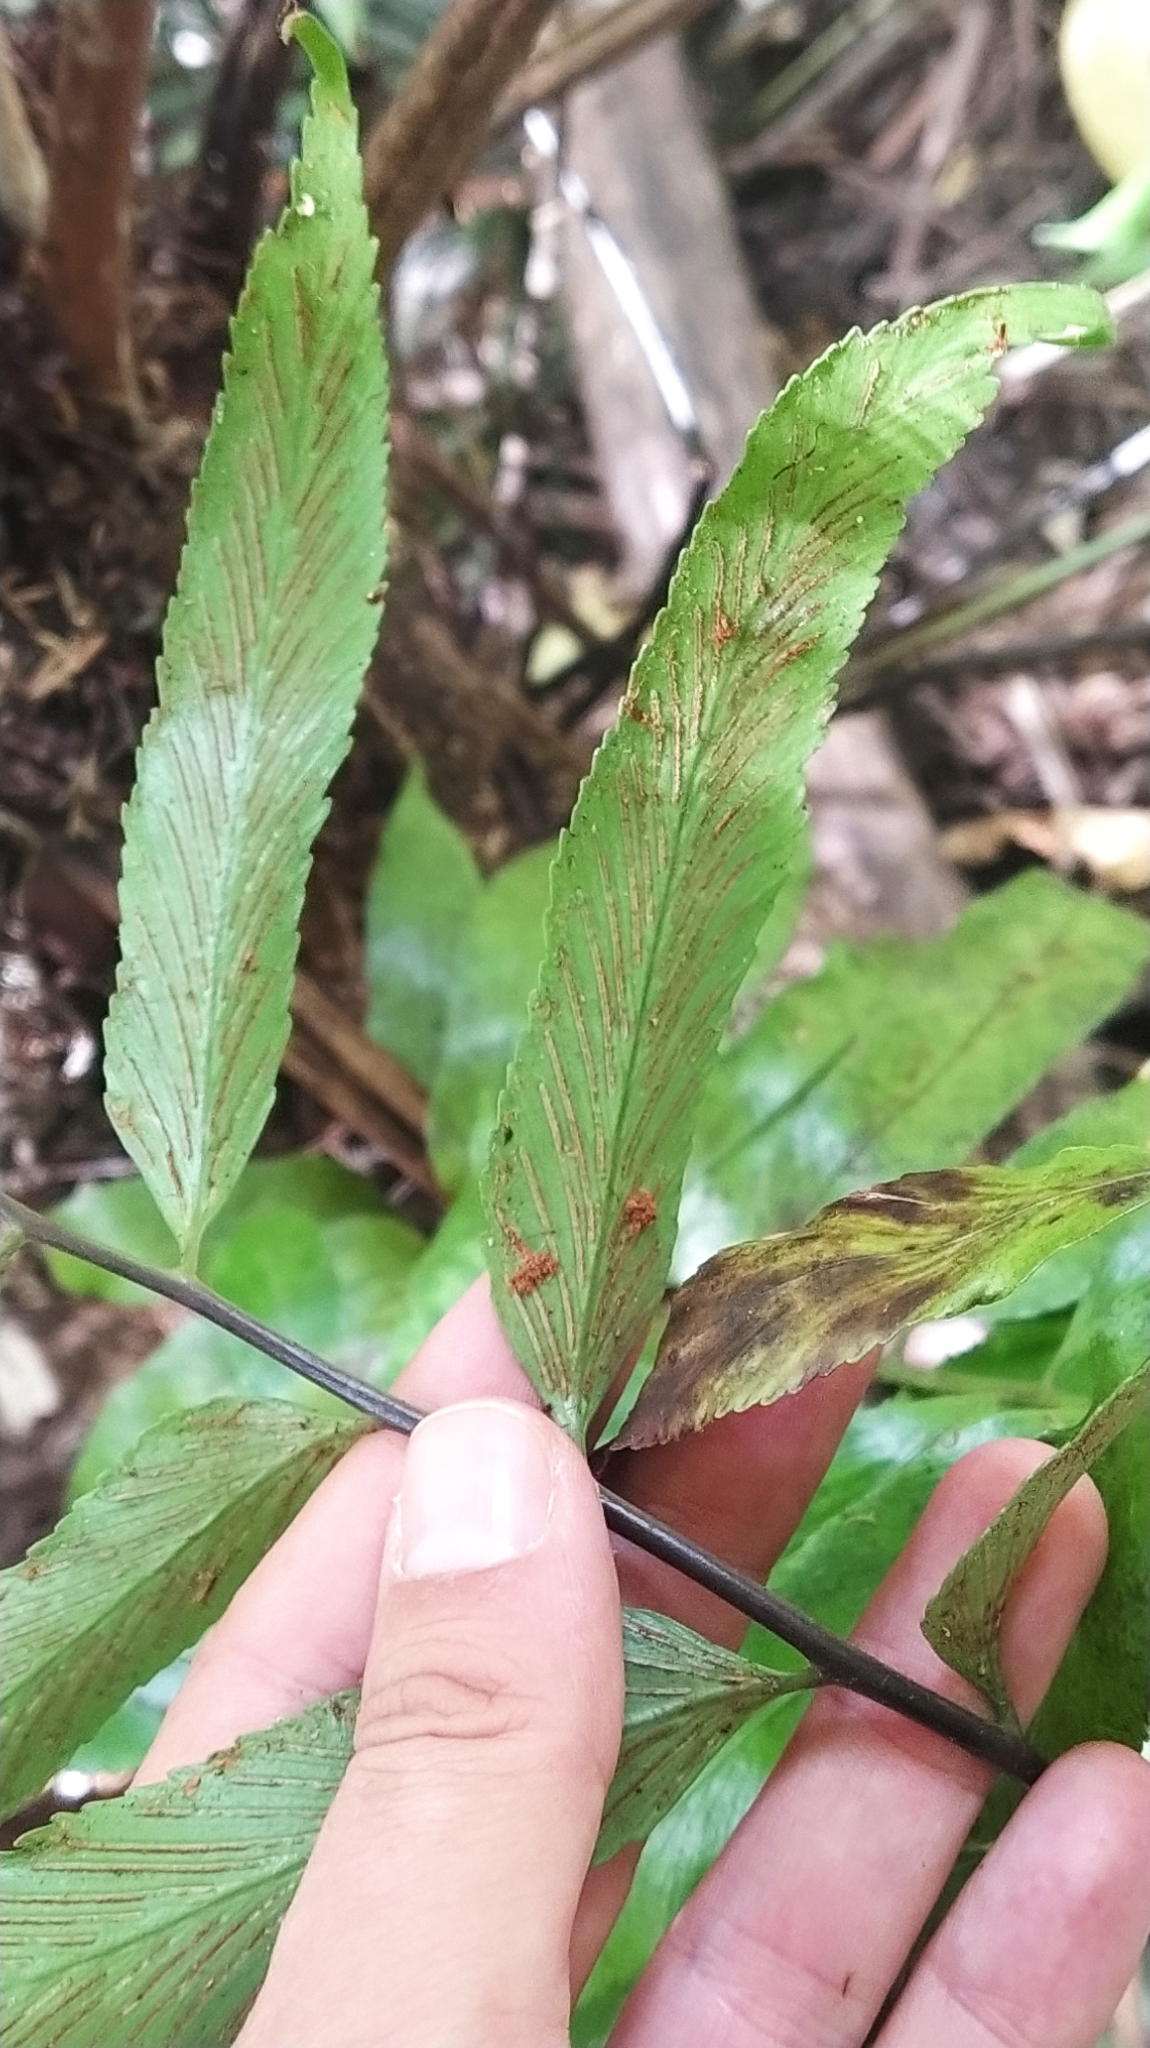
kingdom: Plantae
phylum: Tracheophyta
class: Polypodiopsida
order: Polypodiales
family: Aspleniaceae
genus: Asplenium
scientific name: Asplenium oblongifolium
